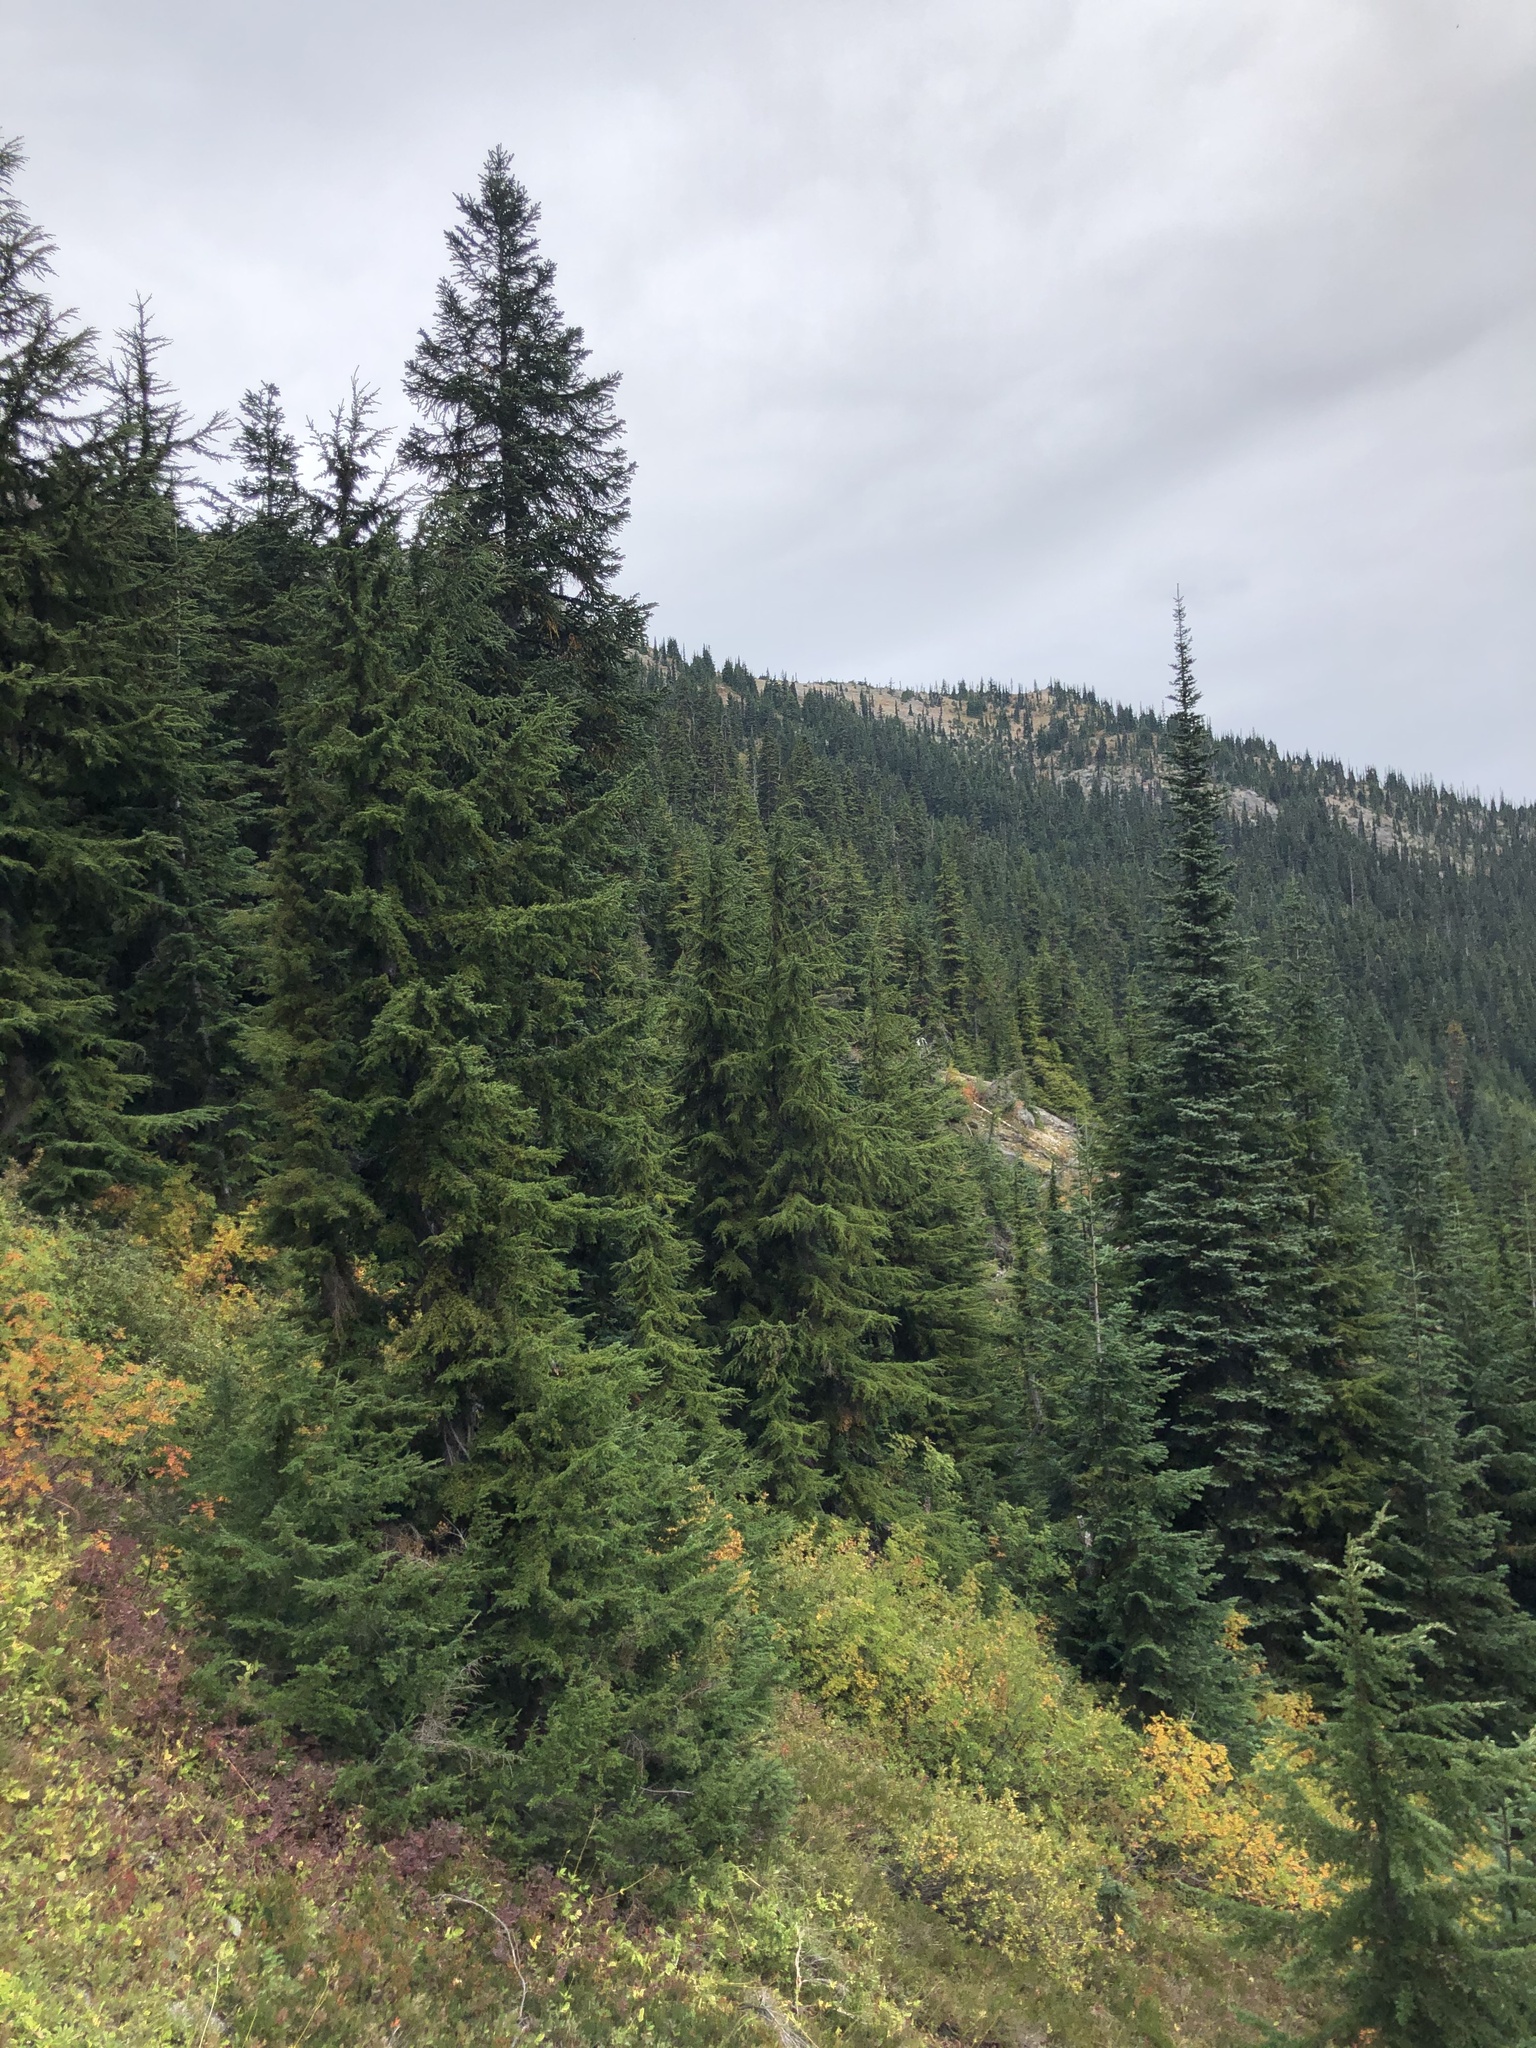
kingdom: Plantae
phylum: Tracheophyta
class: Pinopsida
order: Pinales
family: Pinaceae
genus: Abies
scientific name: Abies amabilis
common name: Pacific silver fir
